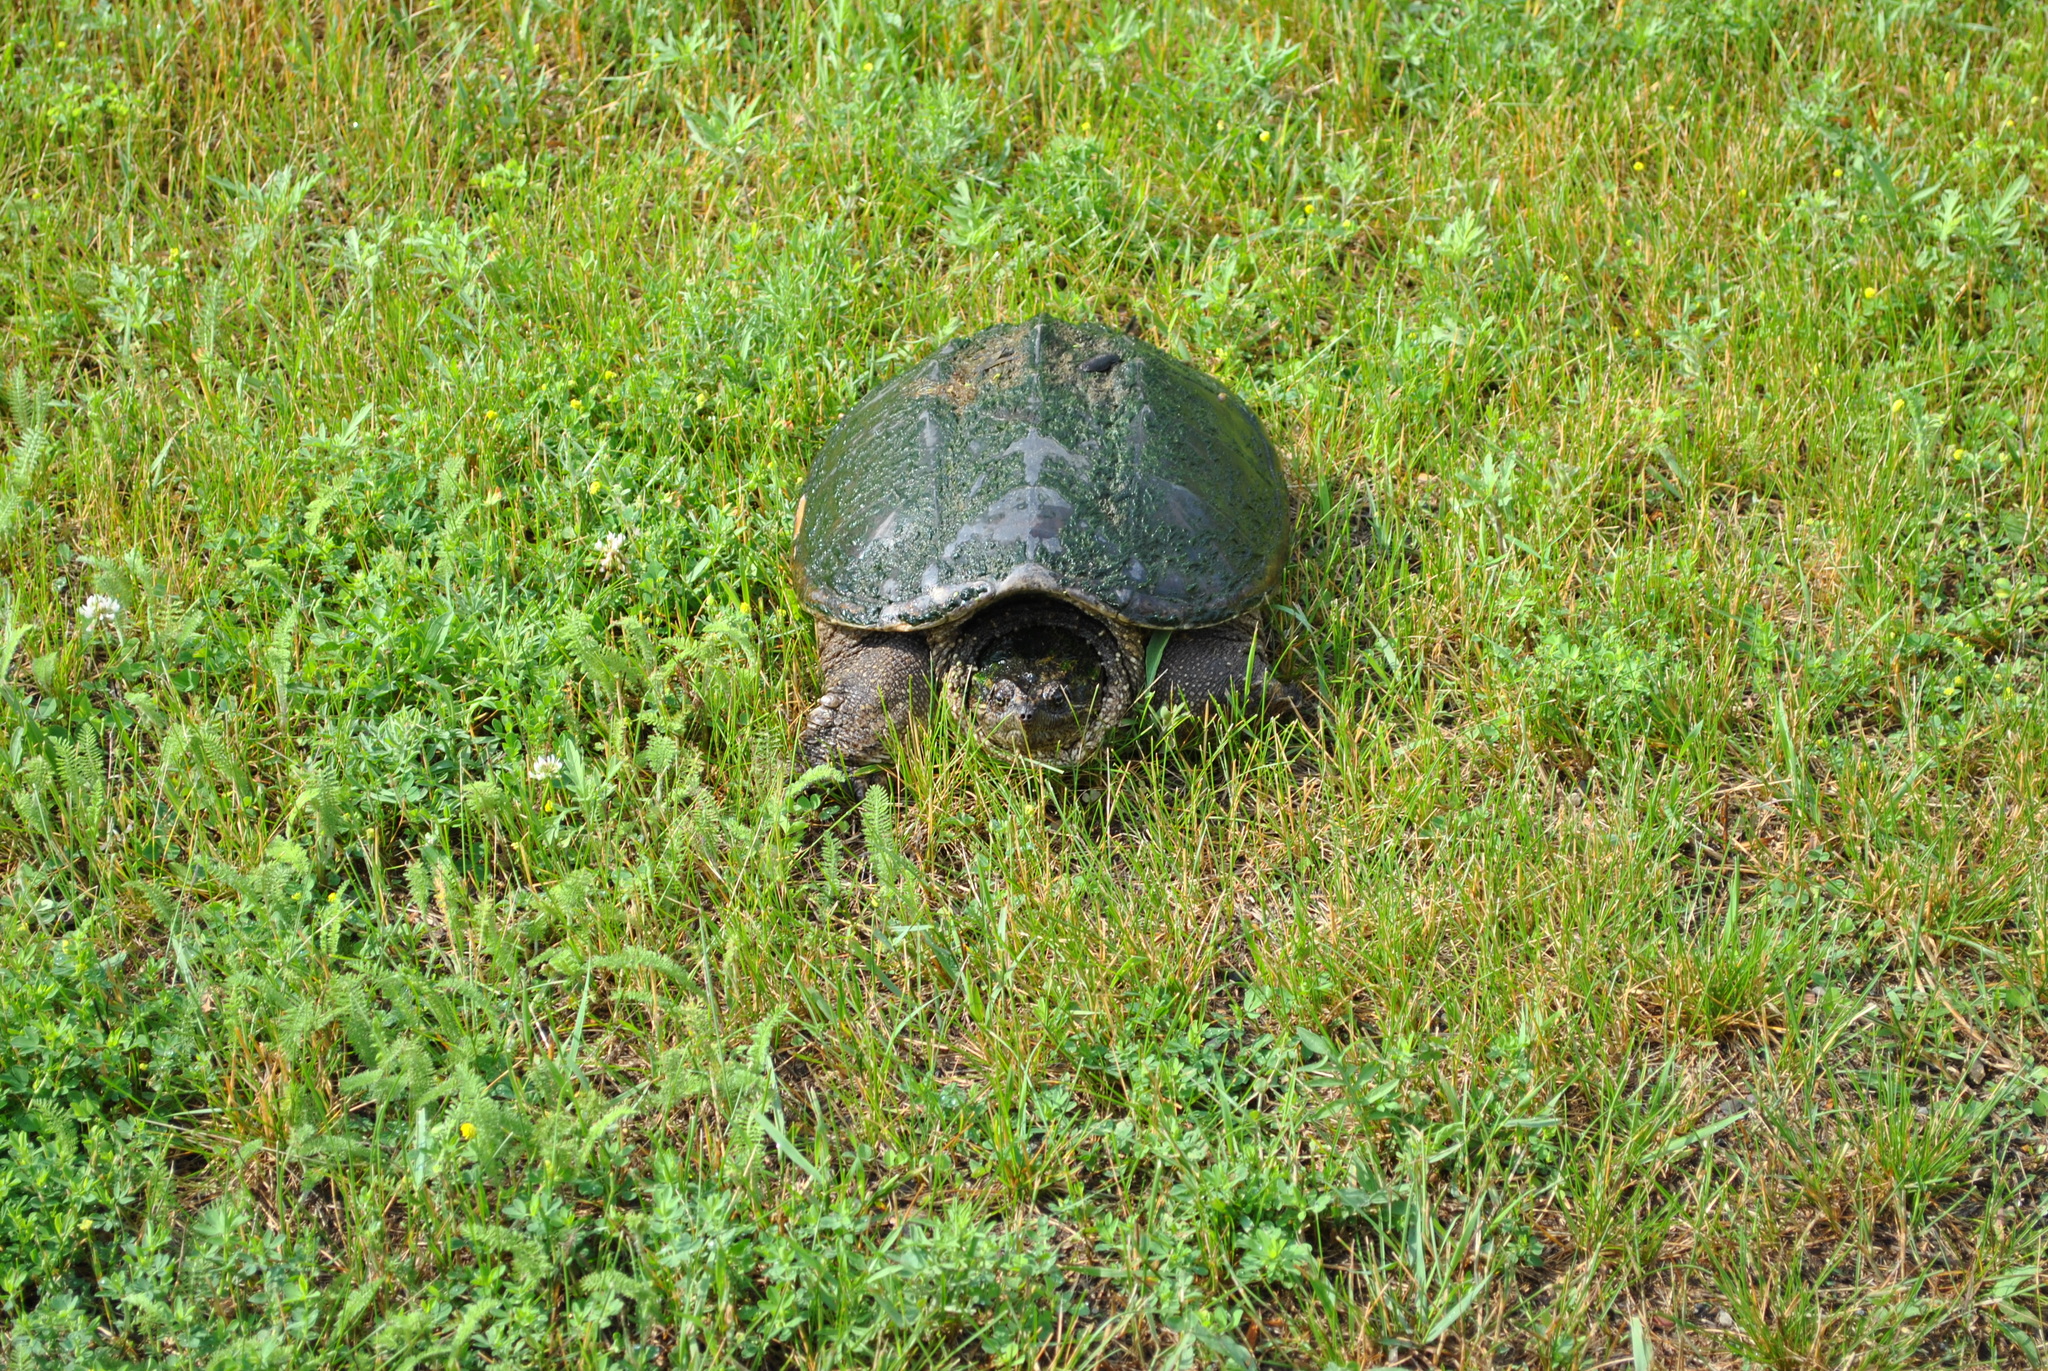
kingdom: Animalia
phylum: Chordata
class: Testudines
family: Chelydridae
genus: Chelydra
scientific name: Chelydra serpentina
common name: Common snapping turtle
